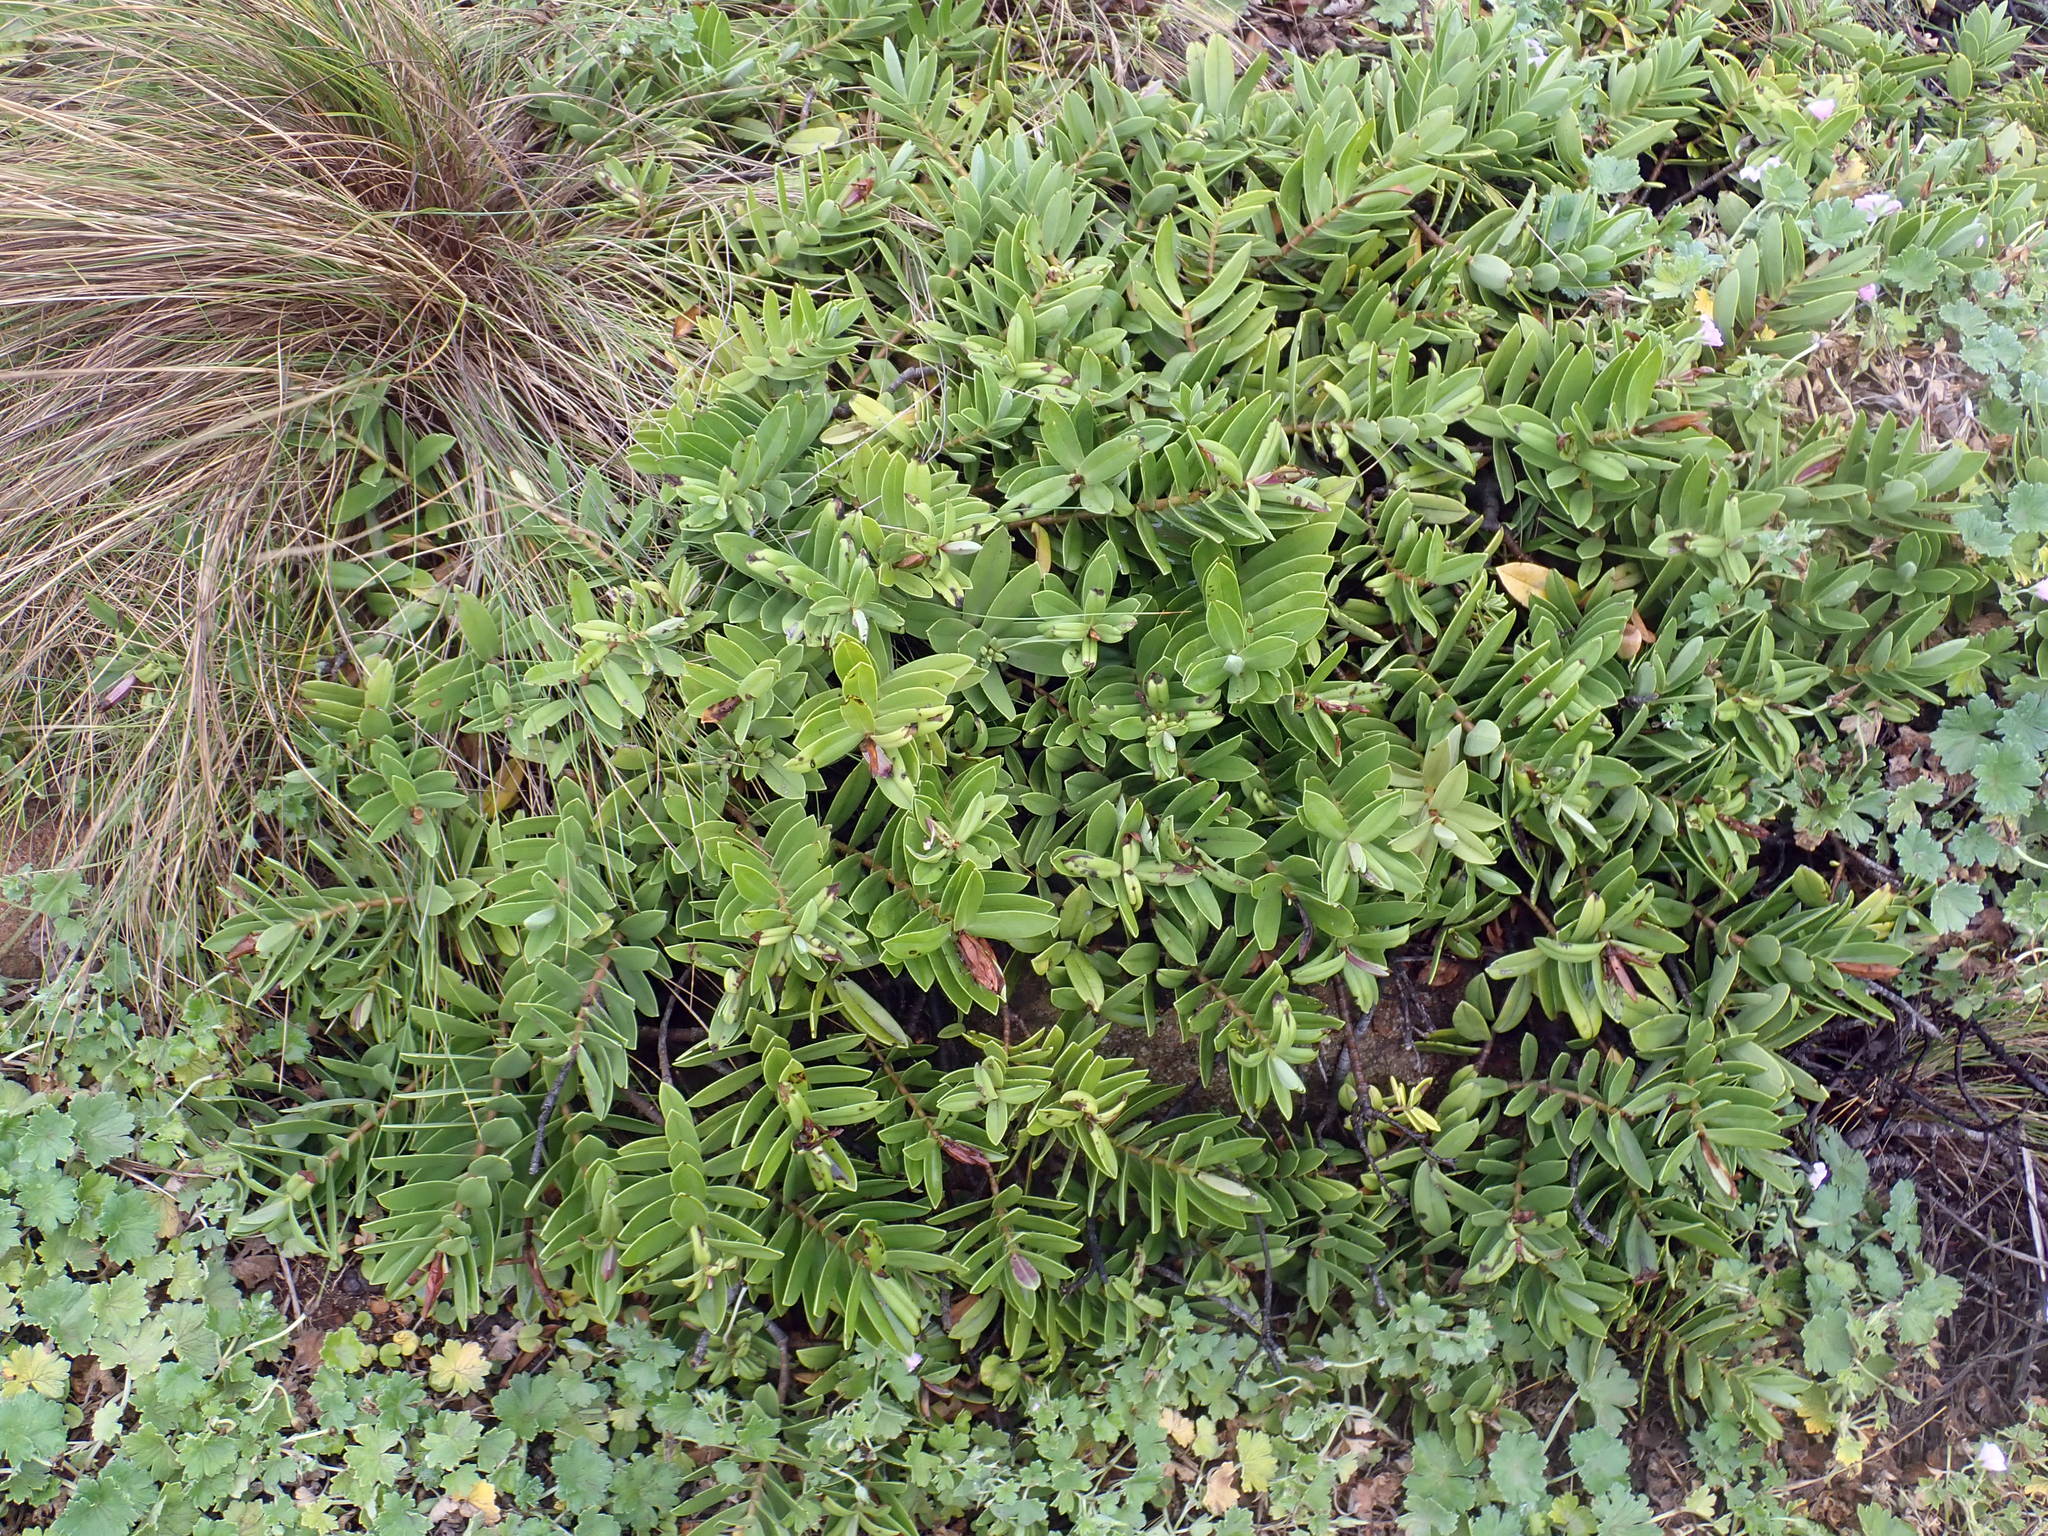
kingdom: Plantae
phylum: Tracheophyta
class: Magnoliopsida
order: Lamiales
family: Plantaginaceae
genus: Veronica
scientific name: Veronica
